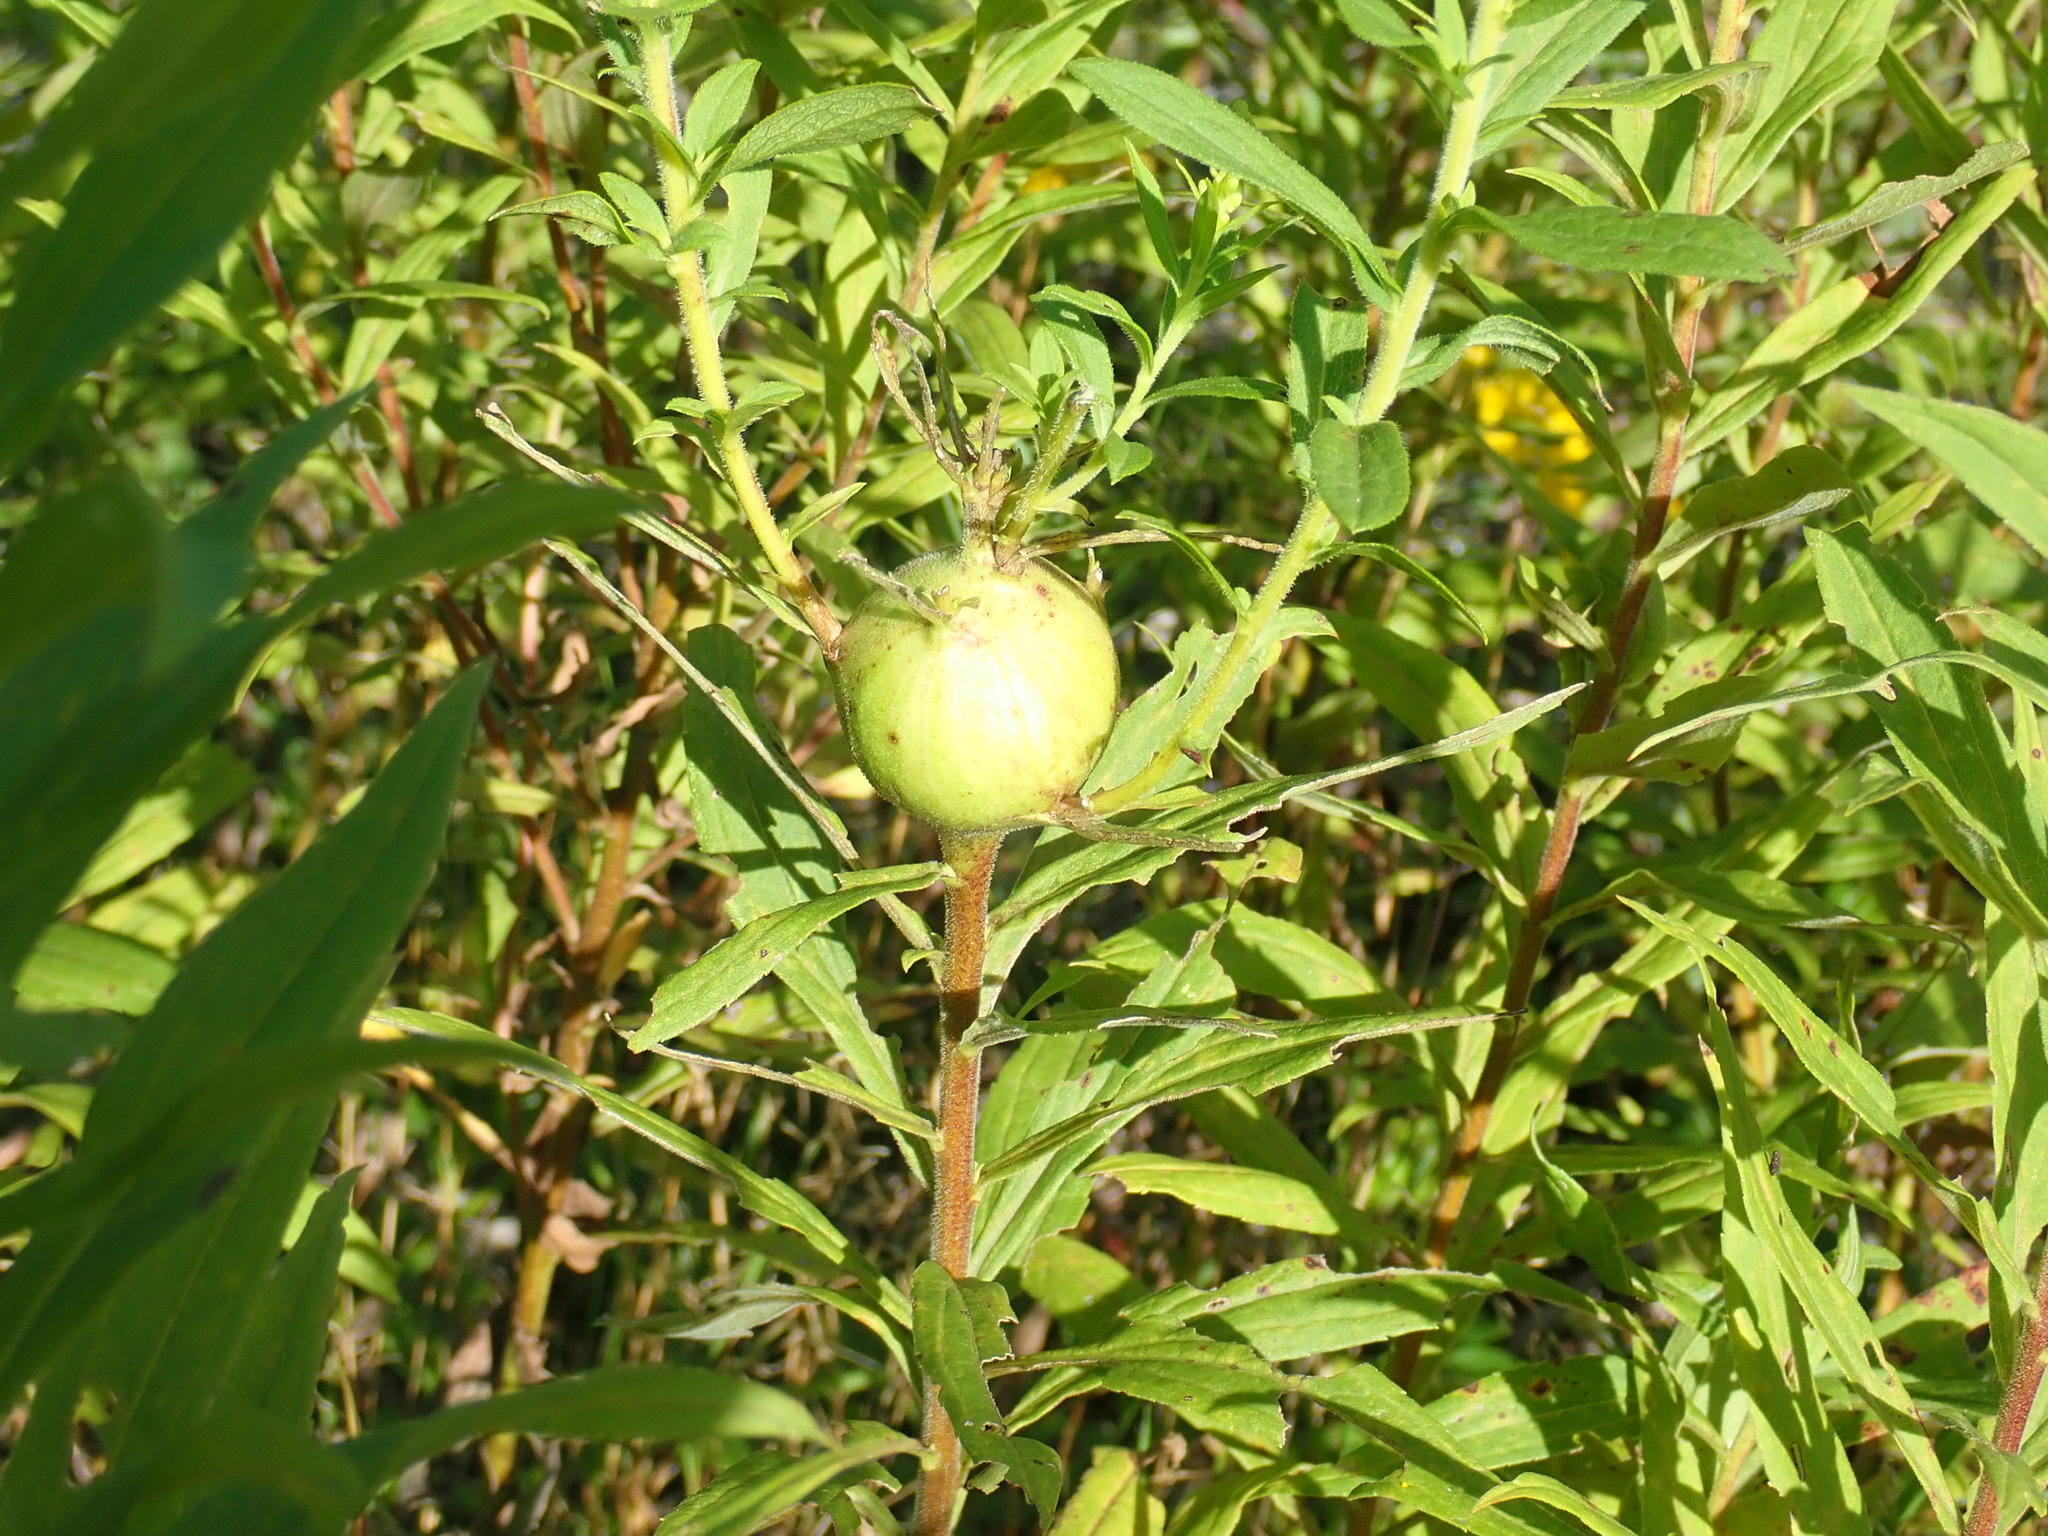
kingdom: Animalia
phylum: Arthropoda
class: Insecta
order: Diptera
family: Tephritidae
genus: Eurosta
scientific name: Eurosta solidaginis
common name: Goldenrod gall fly
